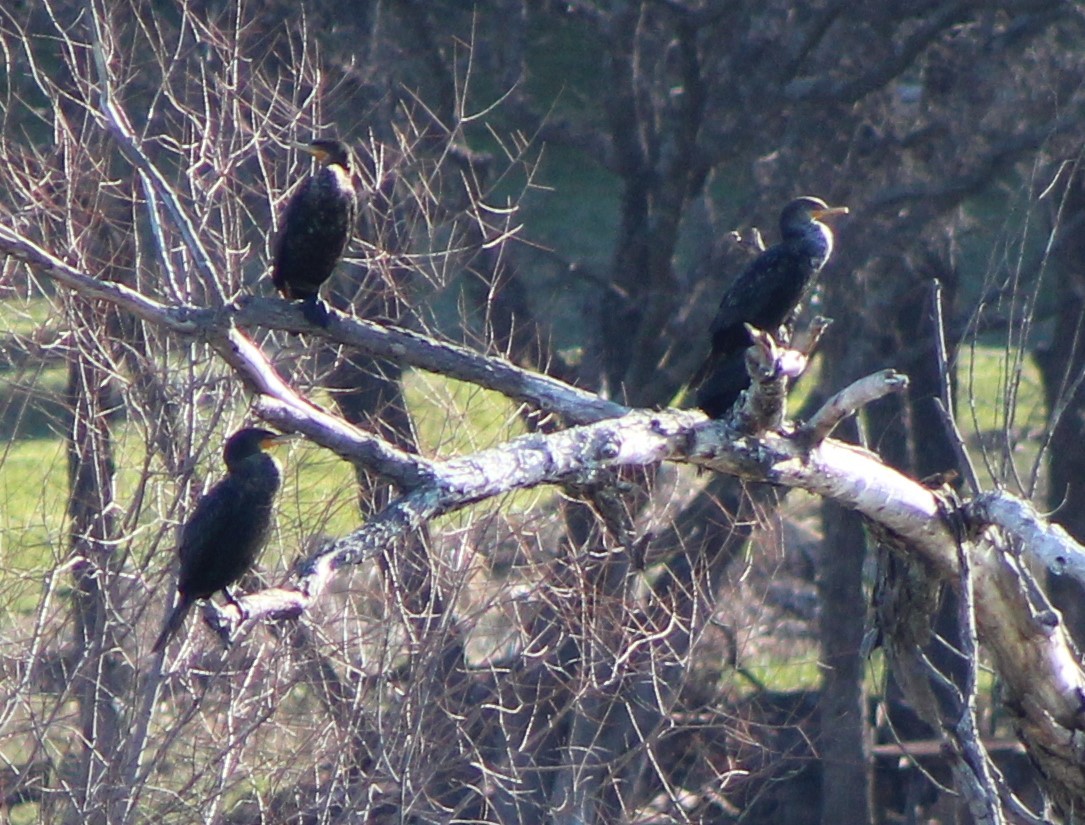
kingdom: Animalia
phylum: Chordata
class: Aves
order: Suliformes
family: Phalacrocoracidae
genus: Phalacrocorax
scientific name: Phalacrocorax brasilianus
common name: Neotropic cormorant
